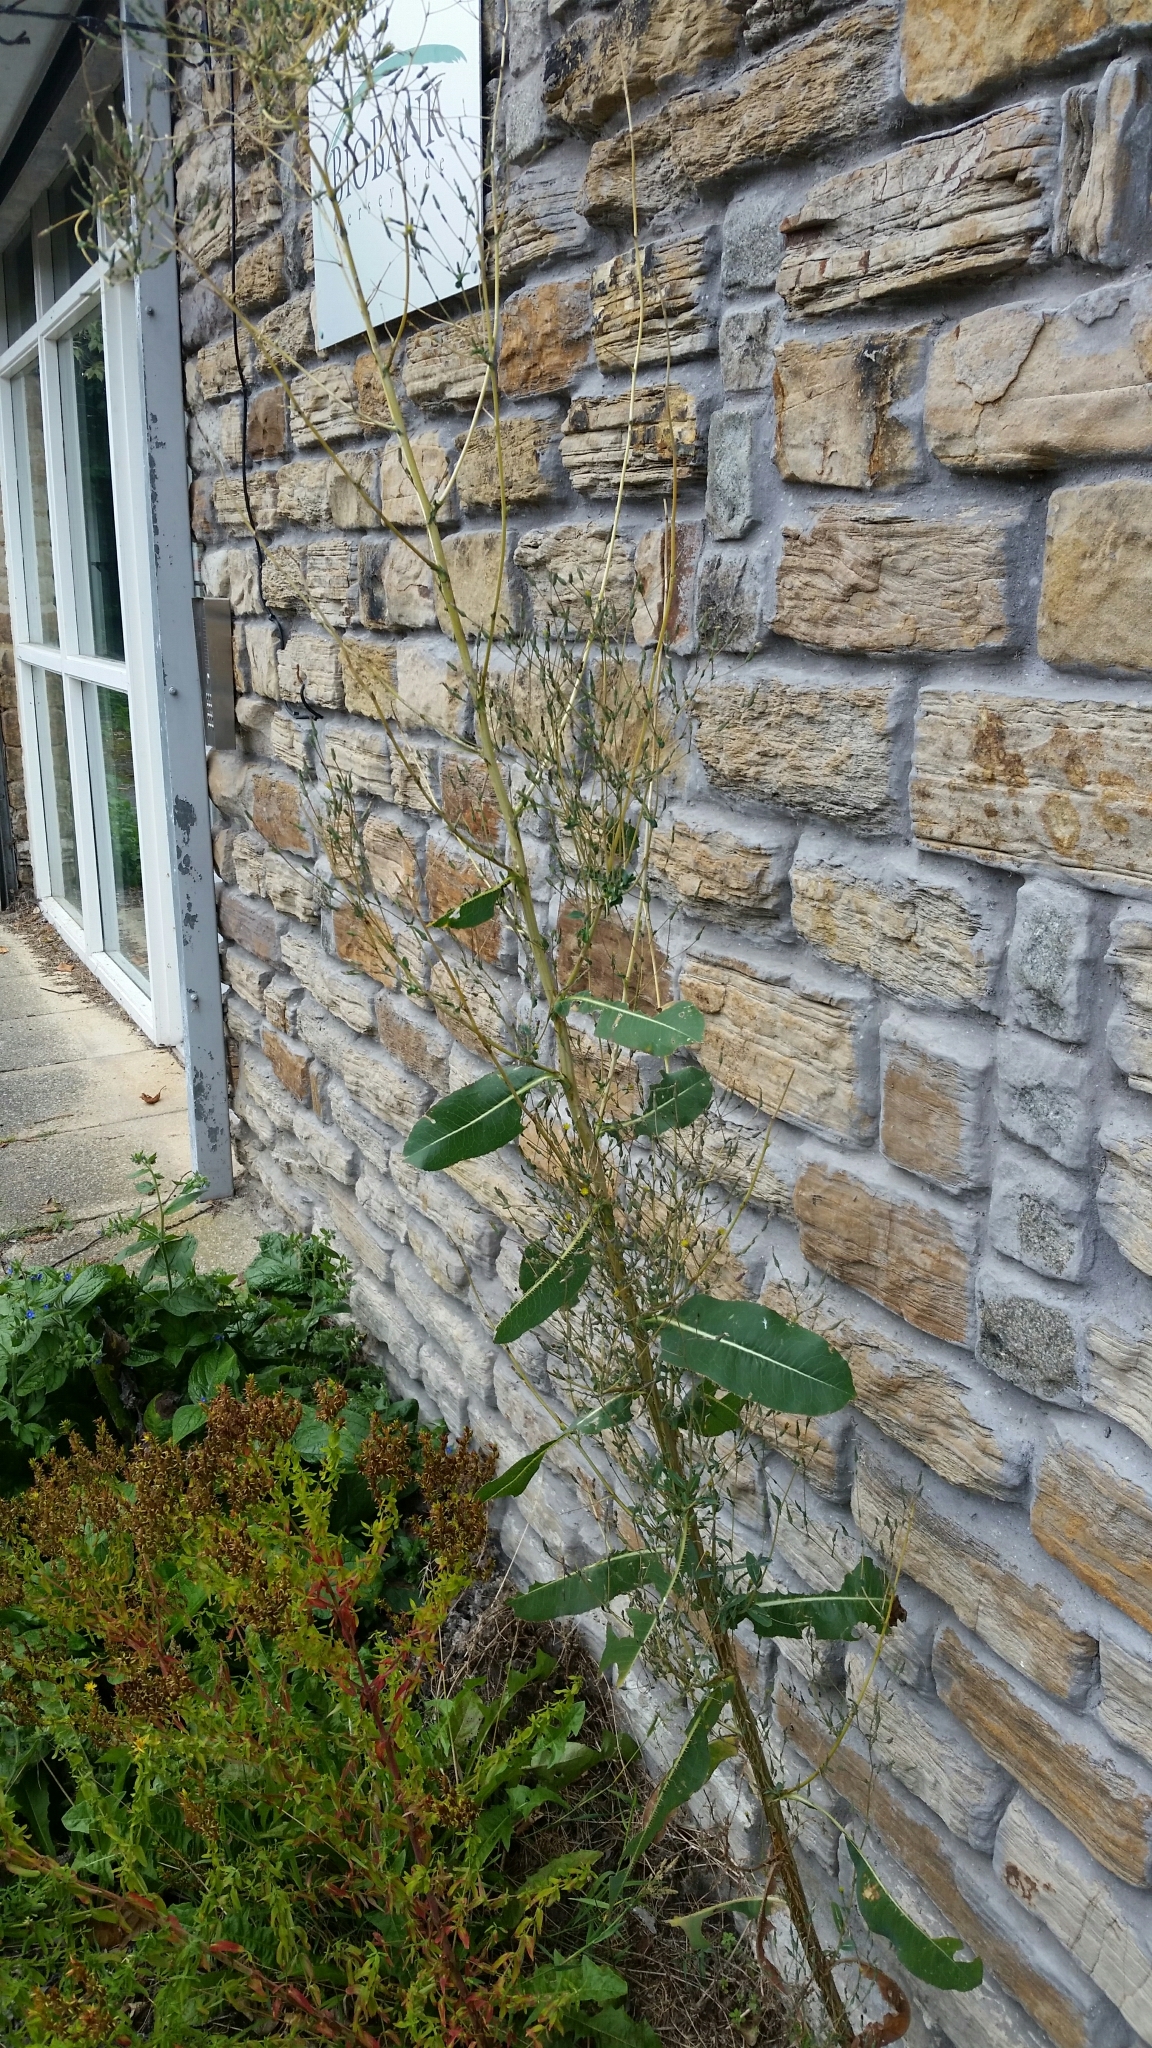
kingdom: Plantae
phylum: Tracheophyta
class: Magnoliopsida
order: Asterales
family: Asteraceae
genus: Lactuca
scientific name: Lactuca serriola
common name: Prickly lettuce
